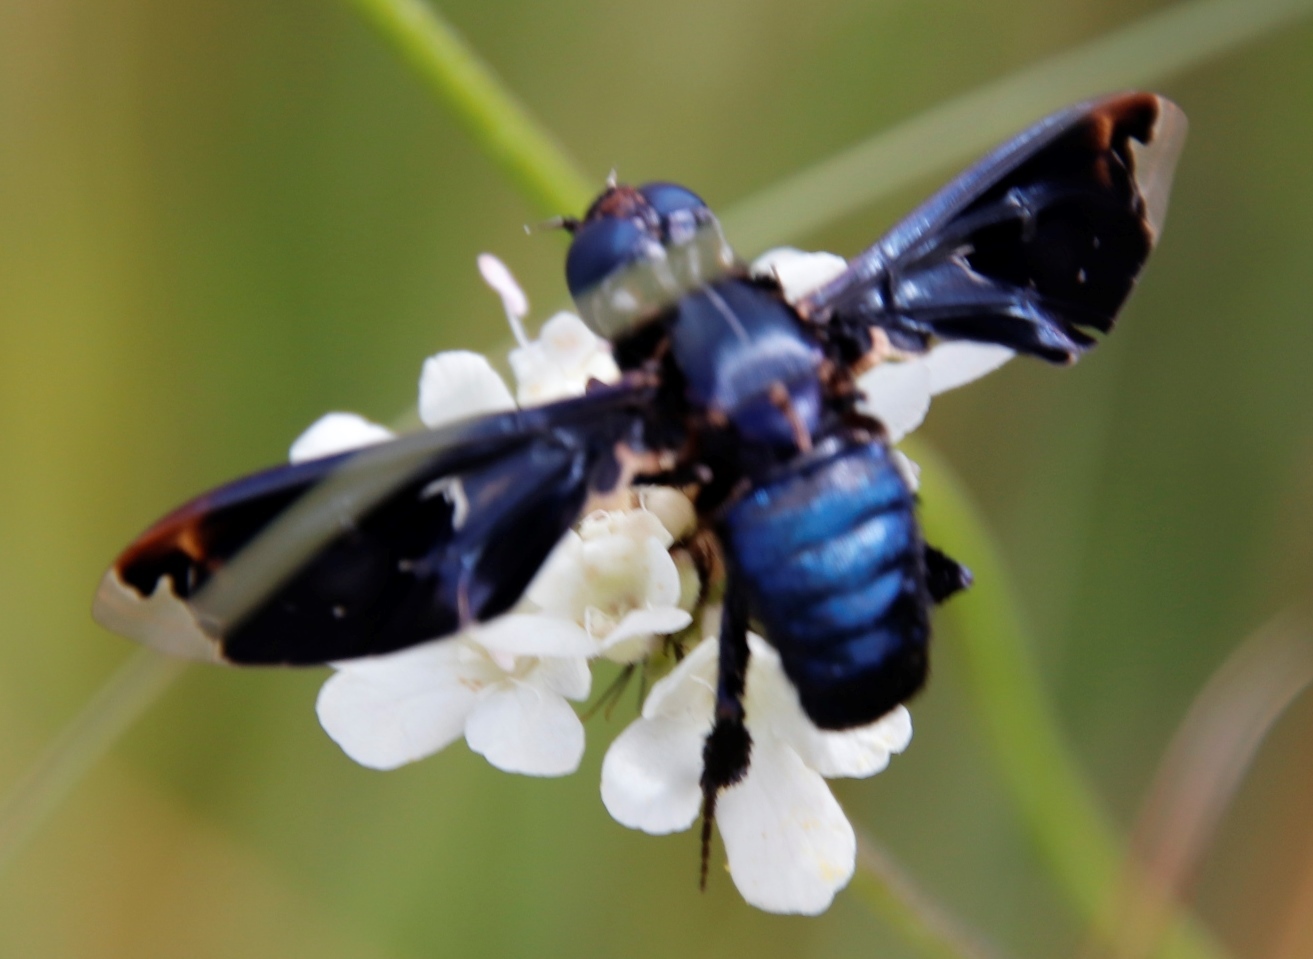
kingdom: Animalia
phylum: Arthropoda
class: Insecta
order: Diptera
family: Bombyliidae
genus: Pterobates
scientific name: Pterobates apicalis
